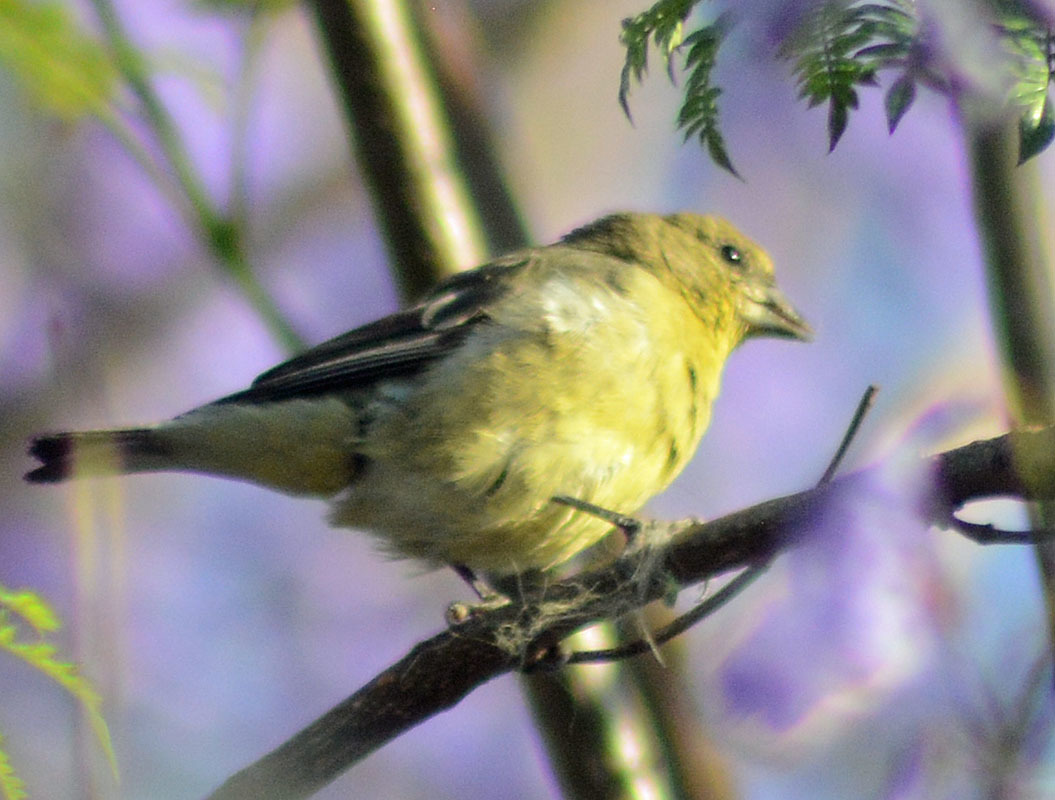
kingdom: Animalia
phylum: Chordata
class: Aves
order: Passeriformes
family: Fringillidae
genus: Spinus
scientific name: Spinus psaltria
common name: Lesser goldfinch
